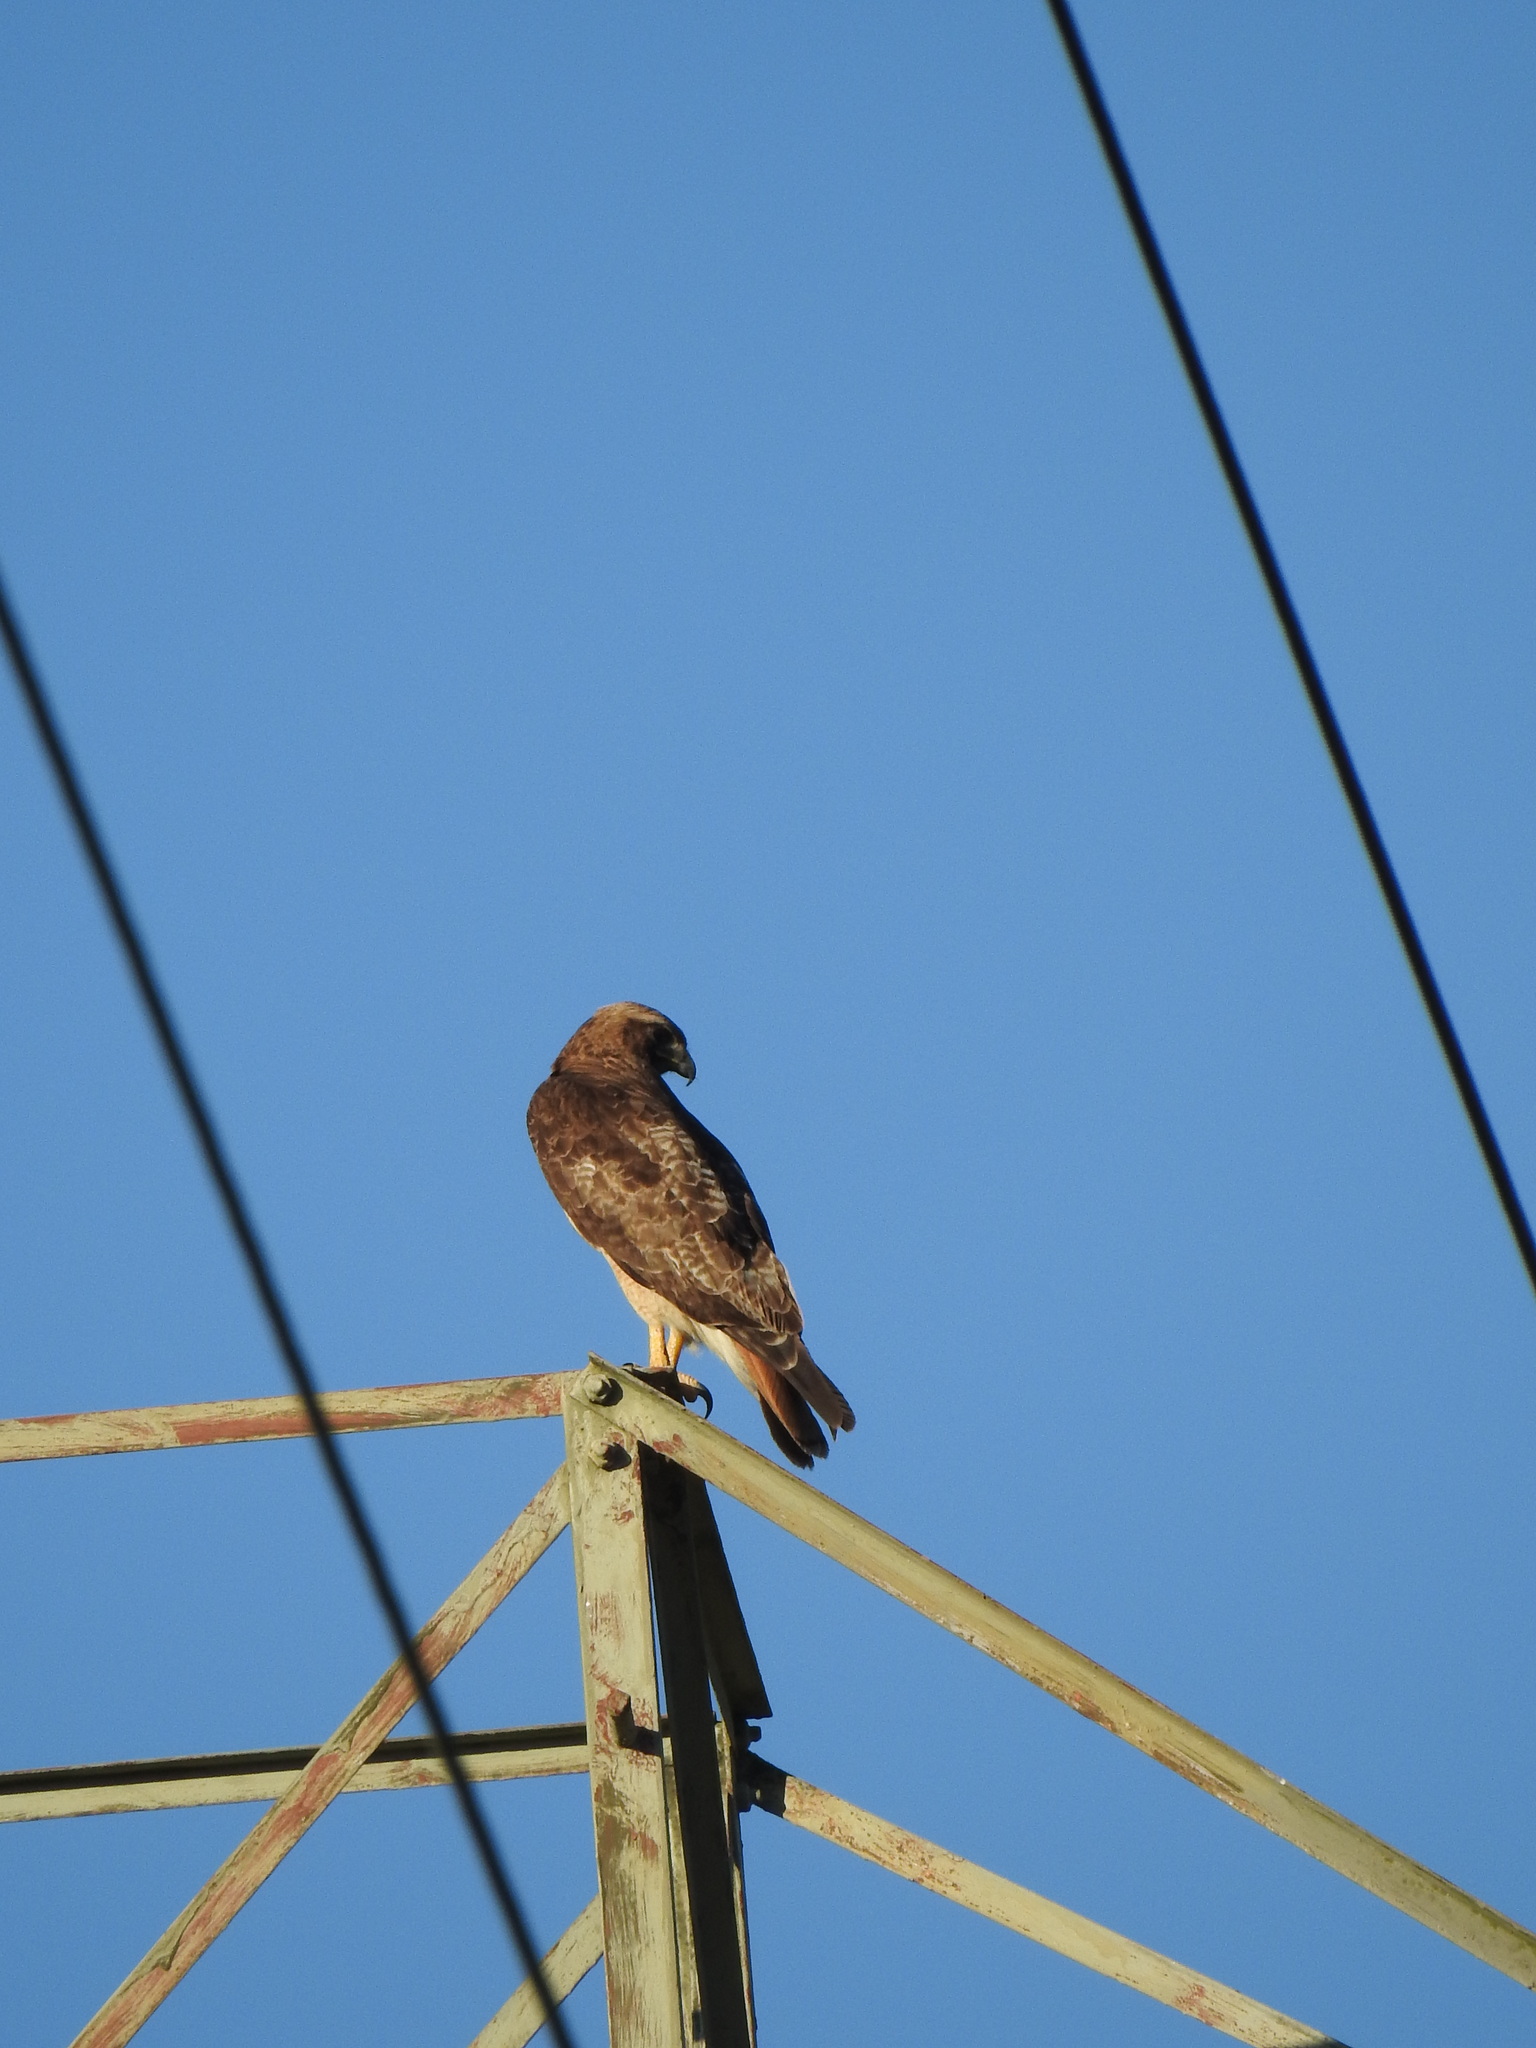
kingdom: Animalia
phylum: Chordata
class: Aves
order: Accipitriformes
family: Accipitridae
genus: Buteo
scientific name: Buteo jamaicensis
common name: Red-tailed hawk
